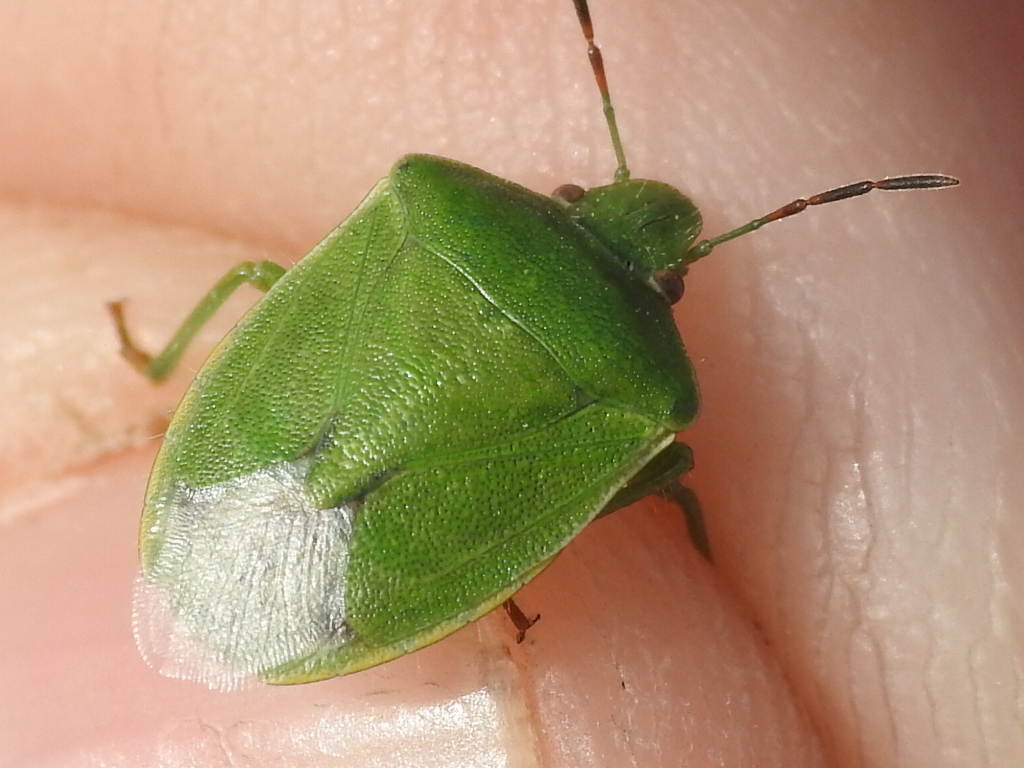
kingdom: Animalia
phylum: Arthropoda
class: Insecta
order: Hemiptera
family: Pentatomidae
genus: Thyanta
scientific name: Thyanta accerra
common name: Stink bug
